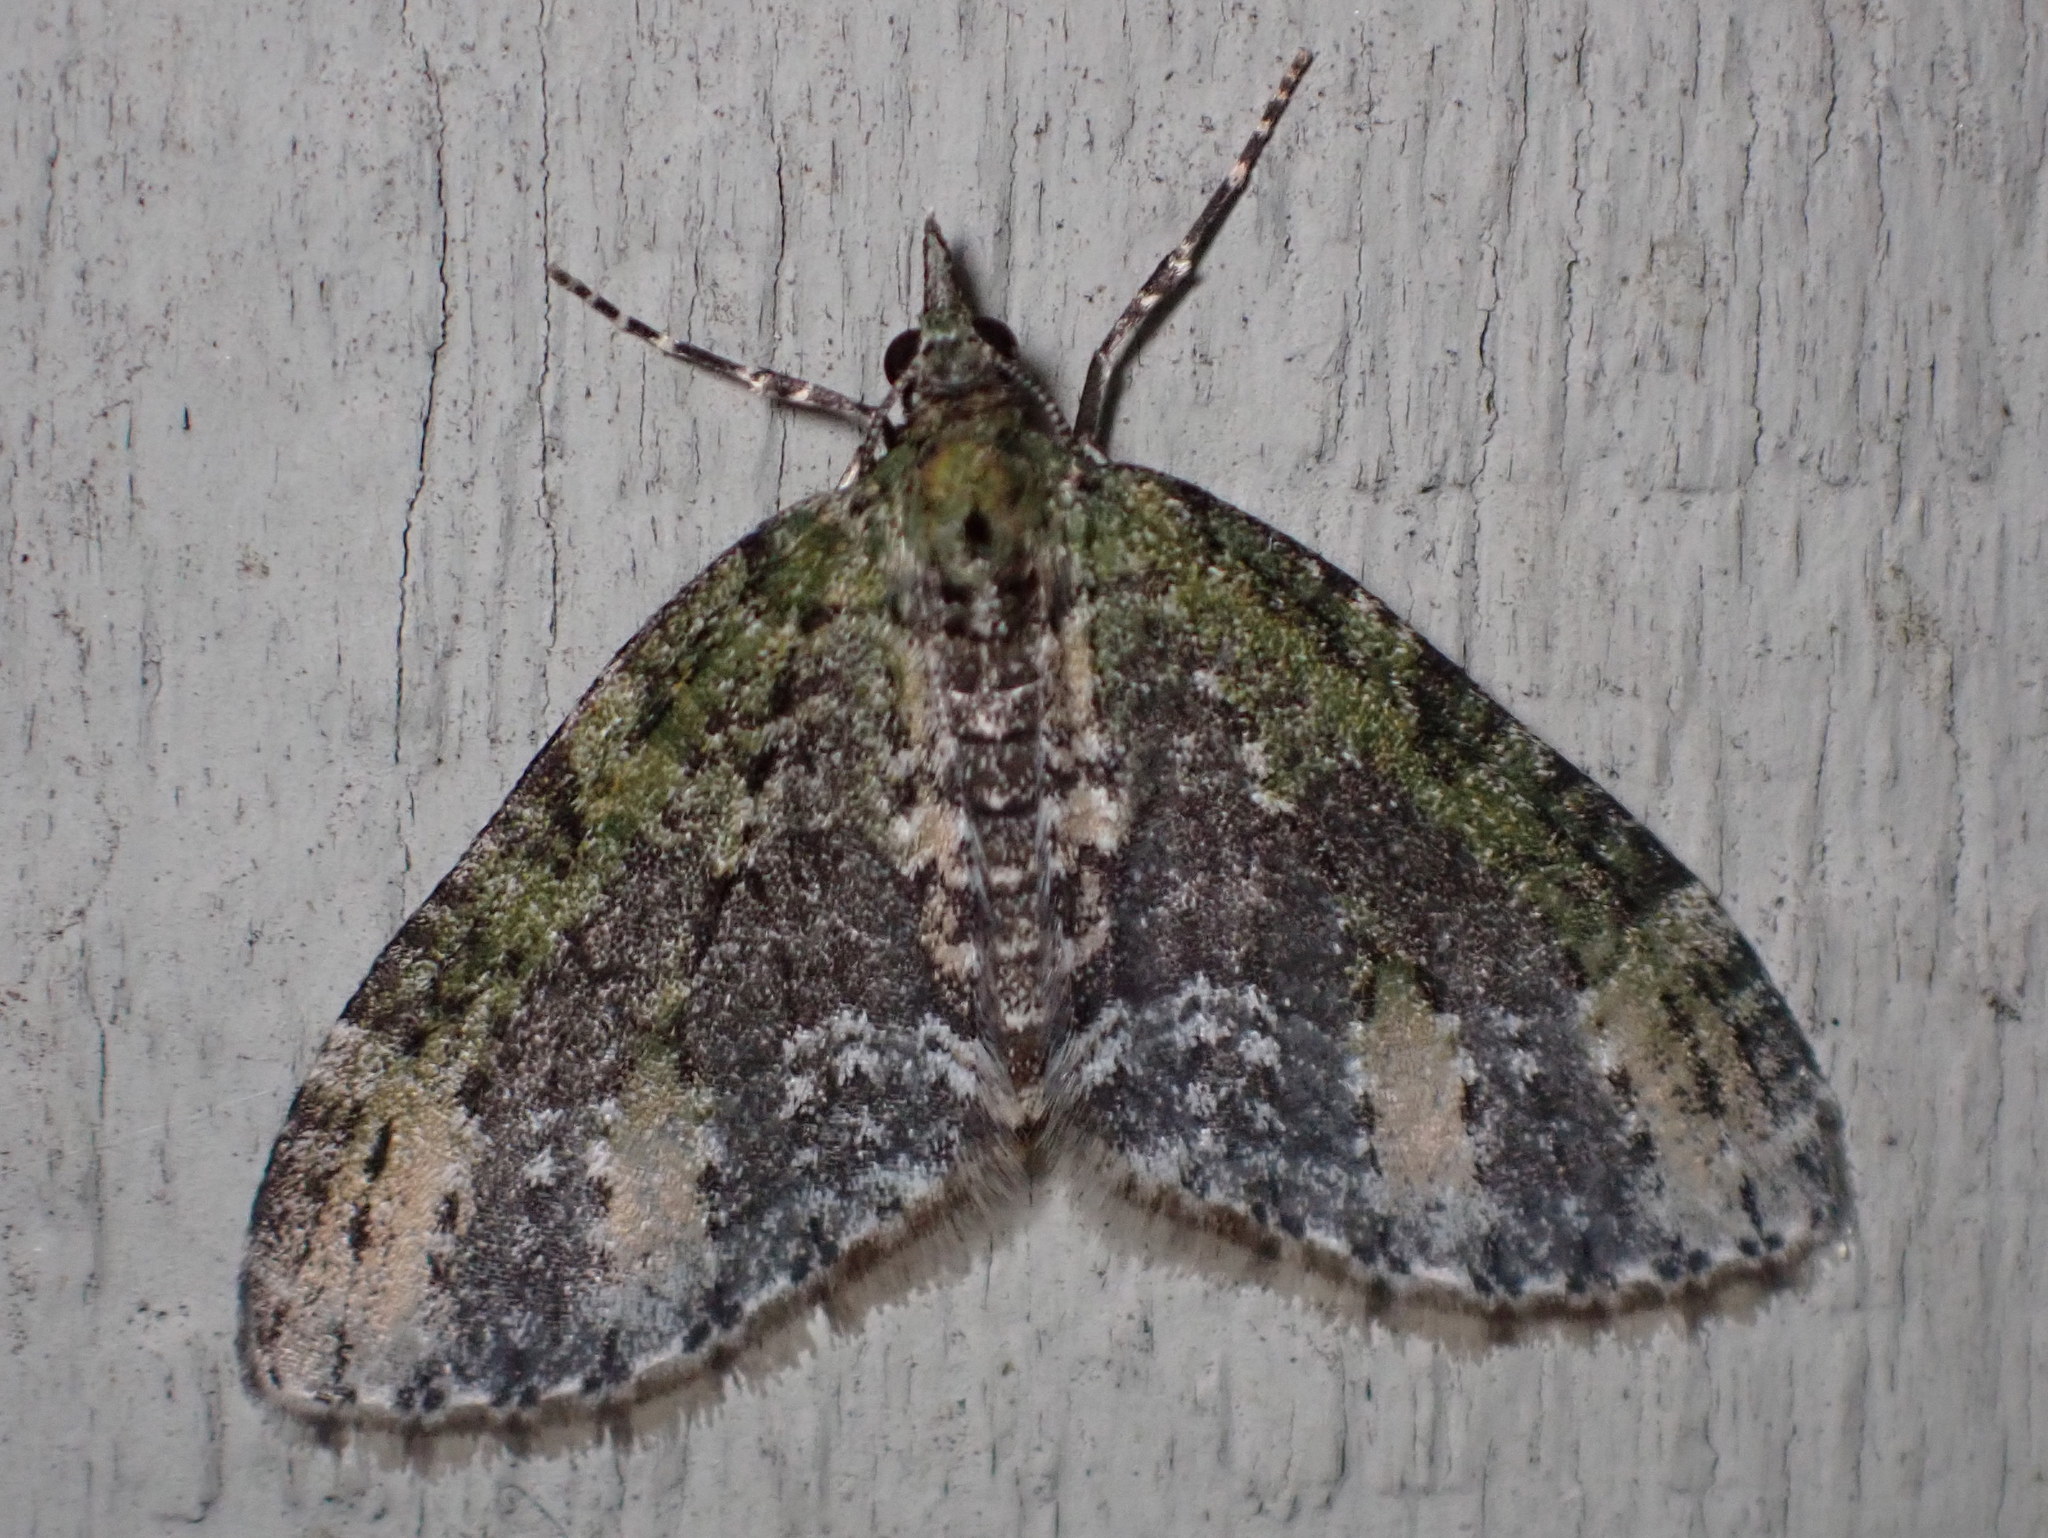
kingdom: Animalia
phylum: Arthropoda
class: Insecta
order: Lepidoptera
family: Geometridae
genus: Acasis
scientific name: Acasis viridata
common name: Olive-and-black carpet moth
